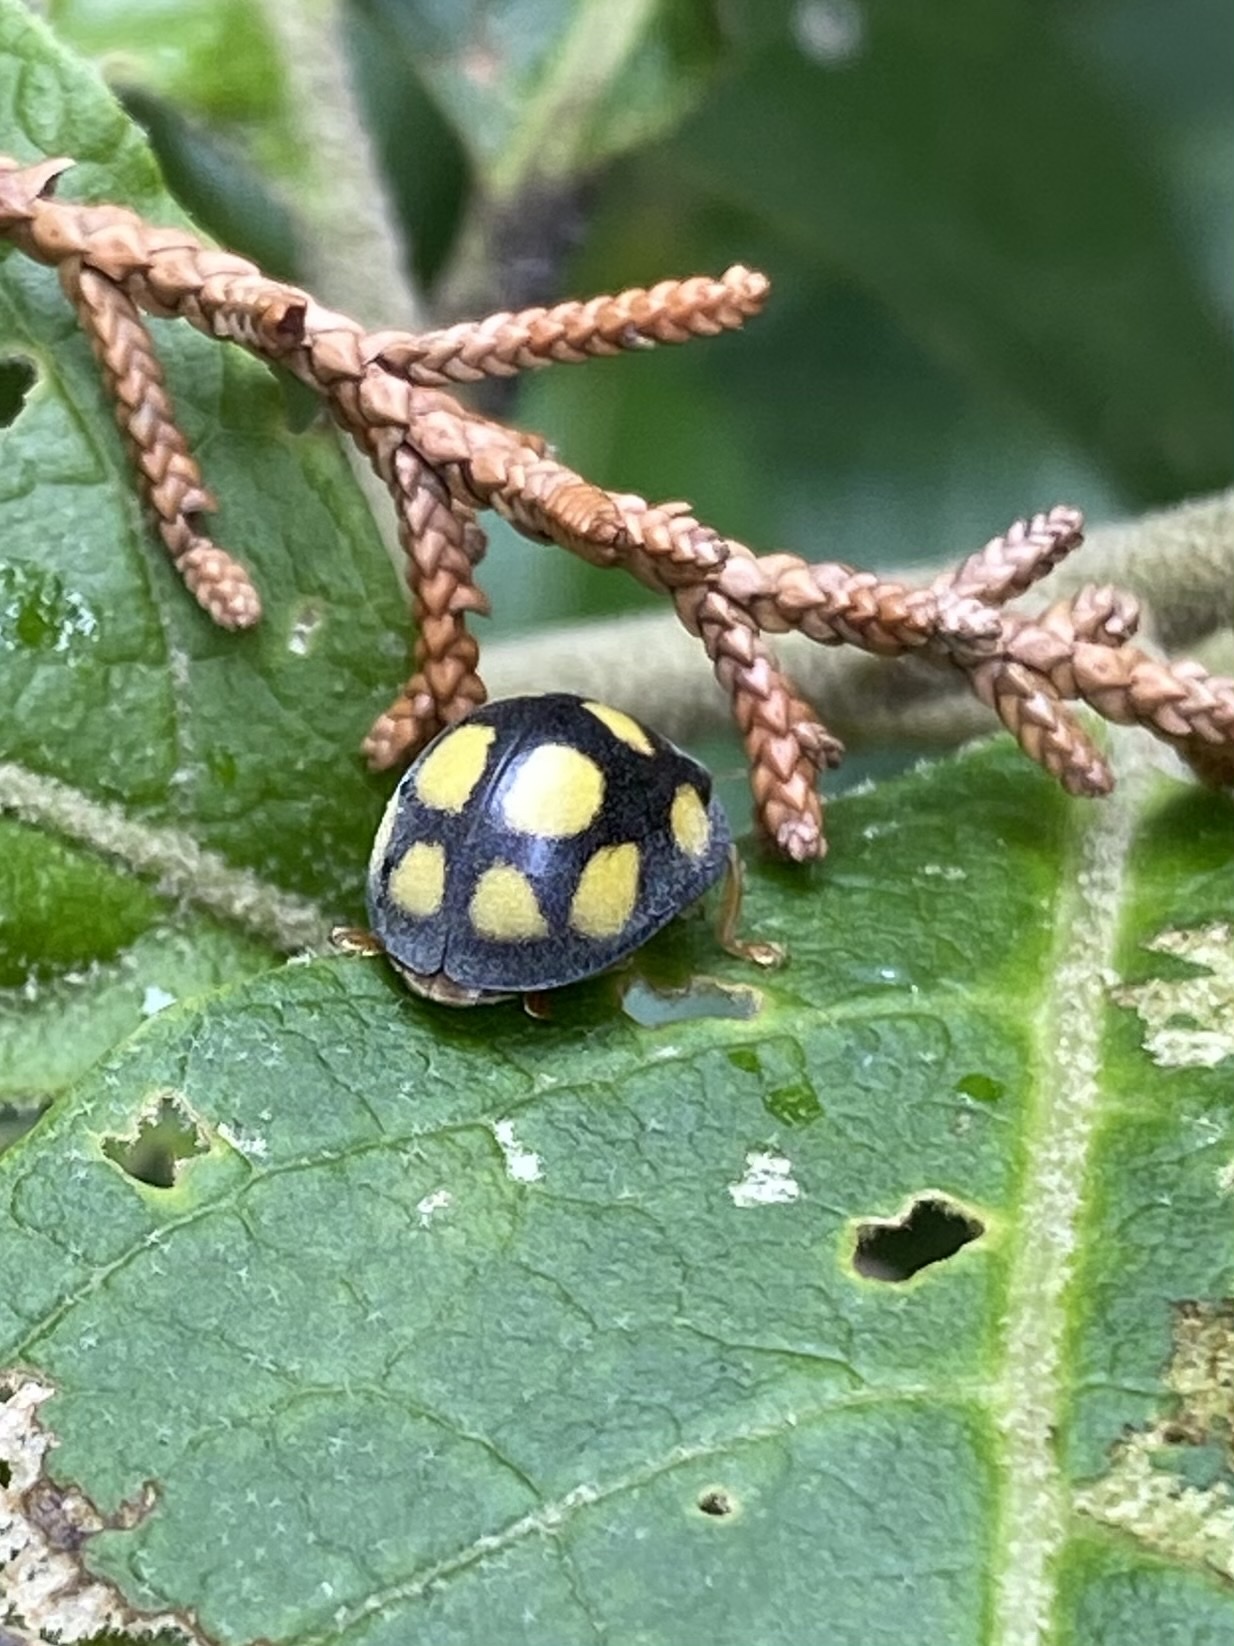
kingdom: Animalia
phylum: Arthropoda
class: Insecta
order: Coleoptera
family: Coccinellidae
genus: Epilachna
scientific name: Epilachna
